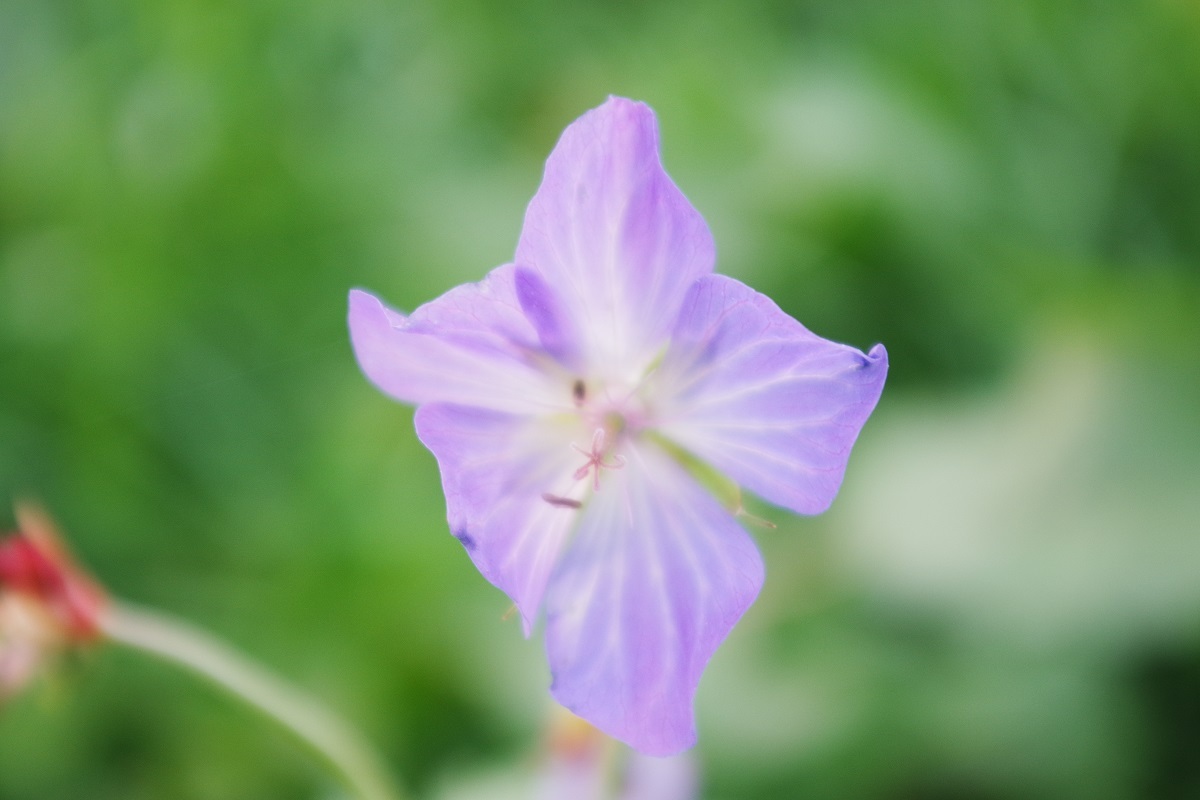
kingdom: Plantae
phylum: Tracheophyta
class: Magnoliopsida
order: Geraniales
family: Geraniaceae
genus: Geranium
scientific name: Geranium pratense
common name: Meadow crane's-bill
